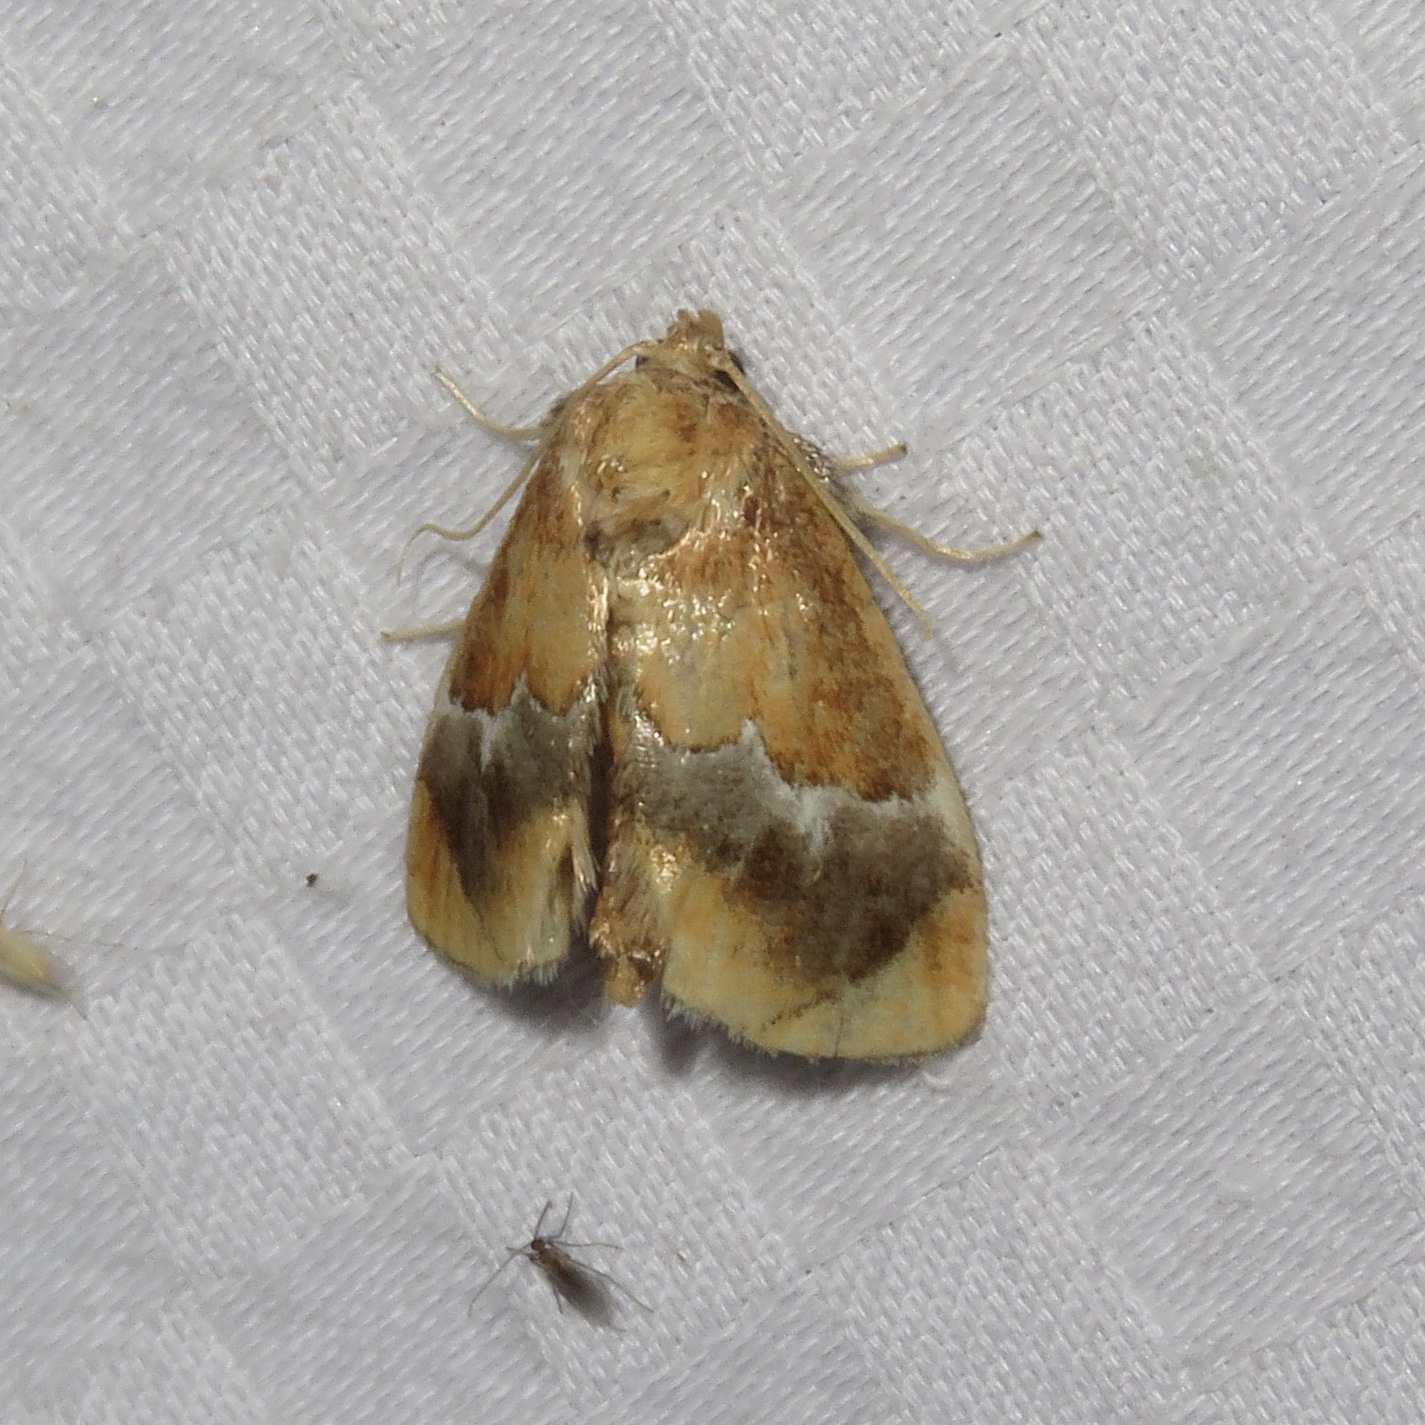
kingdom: Animalia
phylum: Arthropoda
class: Insecta
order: Lepidoptera
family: Limacodidae
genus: Lithacodes
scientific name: Lithacodes fasciola
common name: Yellow-shouldered slug moth
